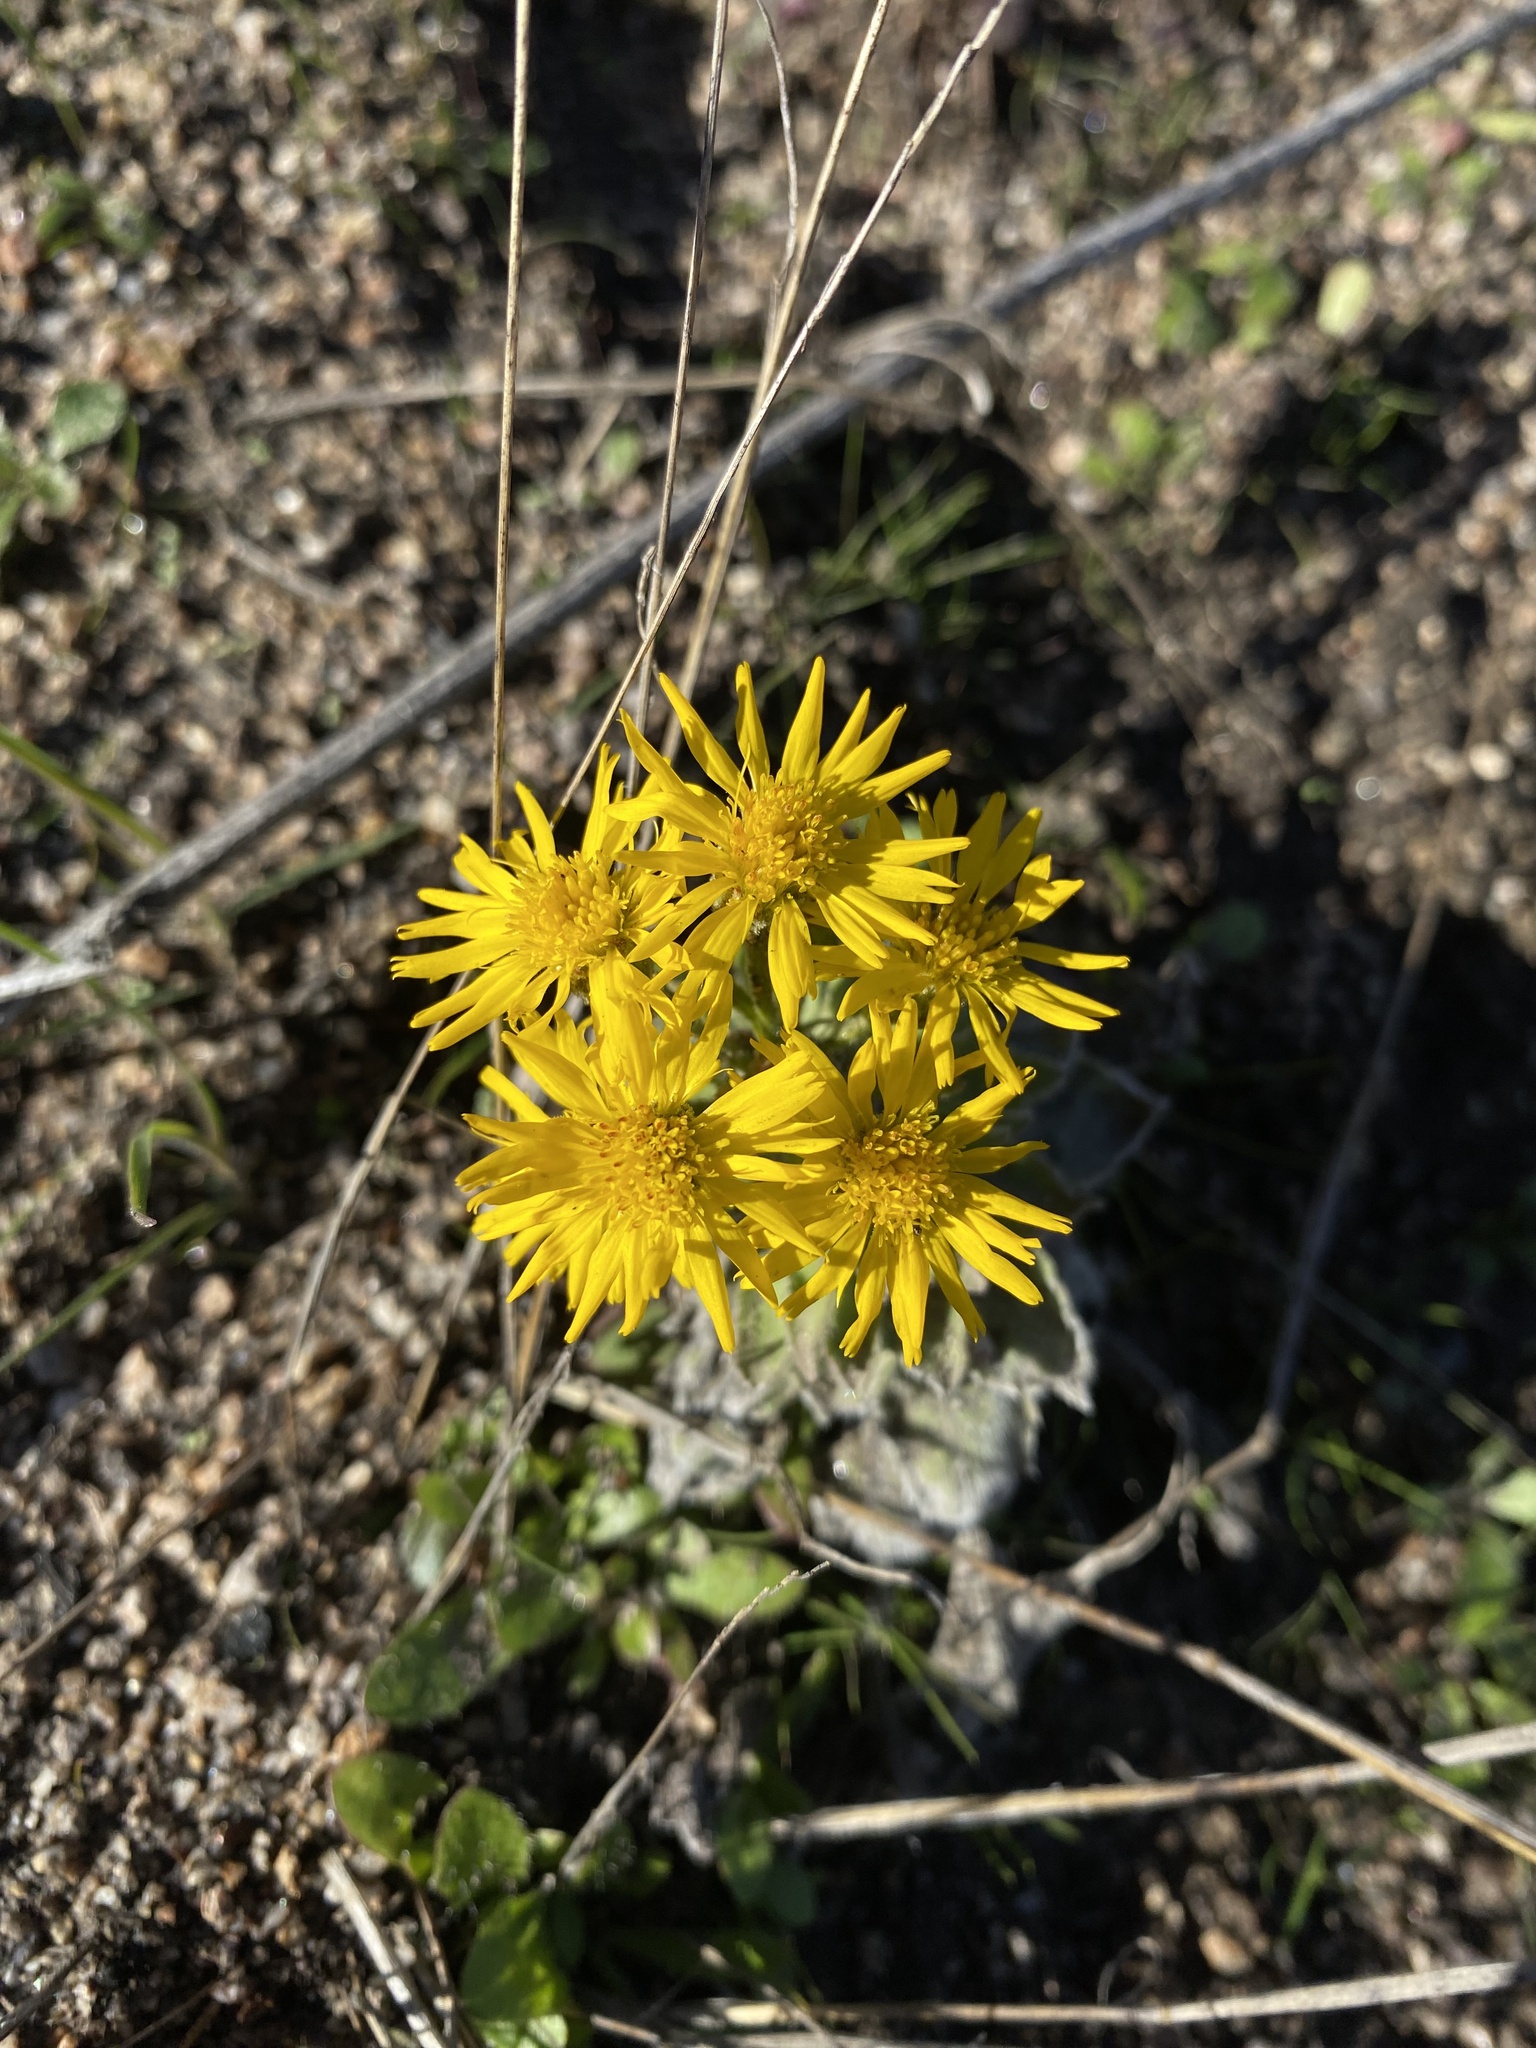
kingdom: Plantae
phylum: Tracheophyta
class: Magnoliopsida
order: Asterales
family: Asteraceae
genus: Heterotheca
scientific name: Heterotheca grandiflora
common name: Telegraphweed
